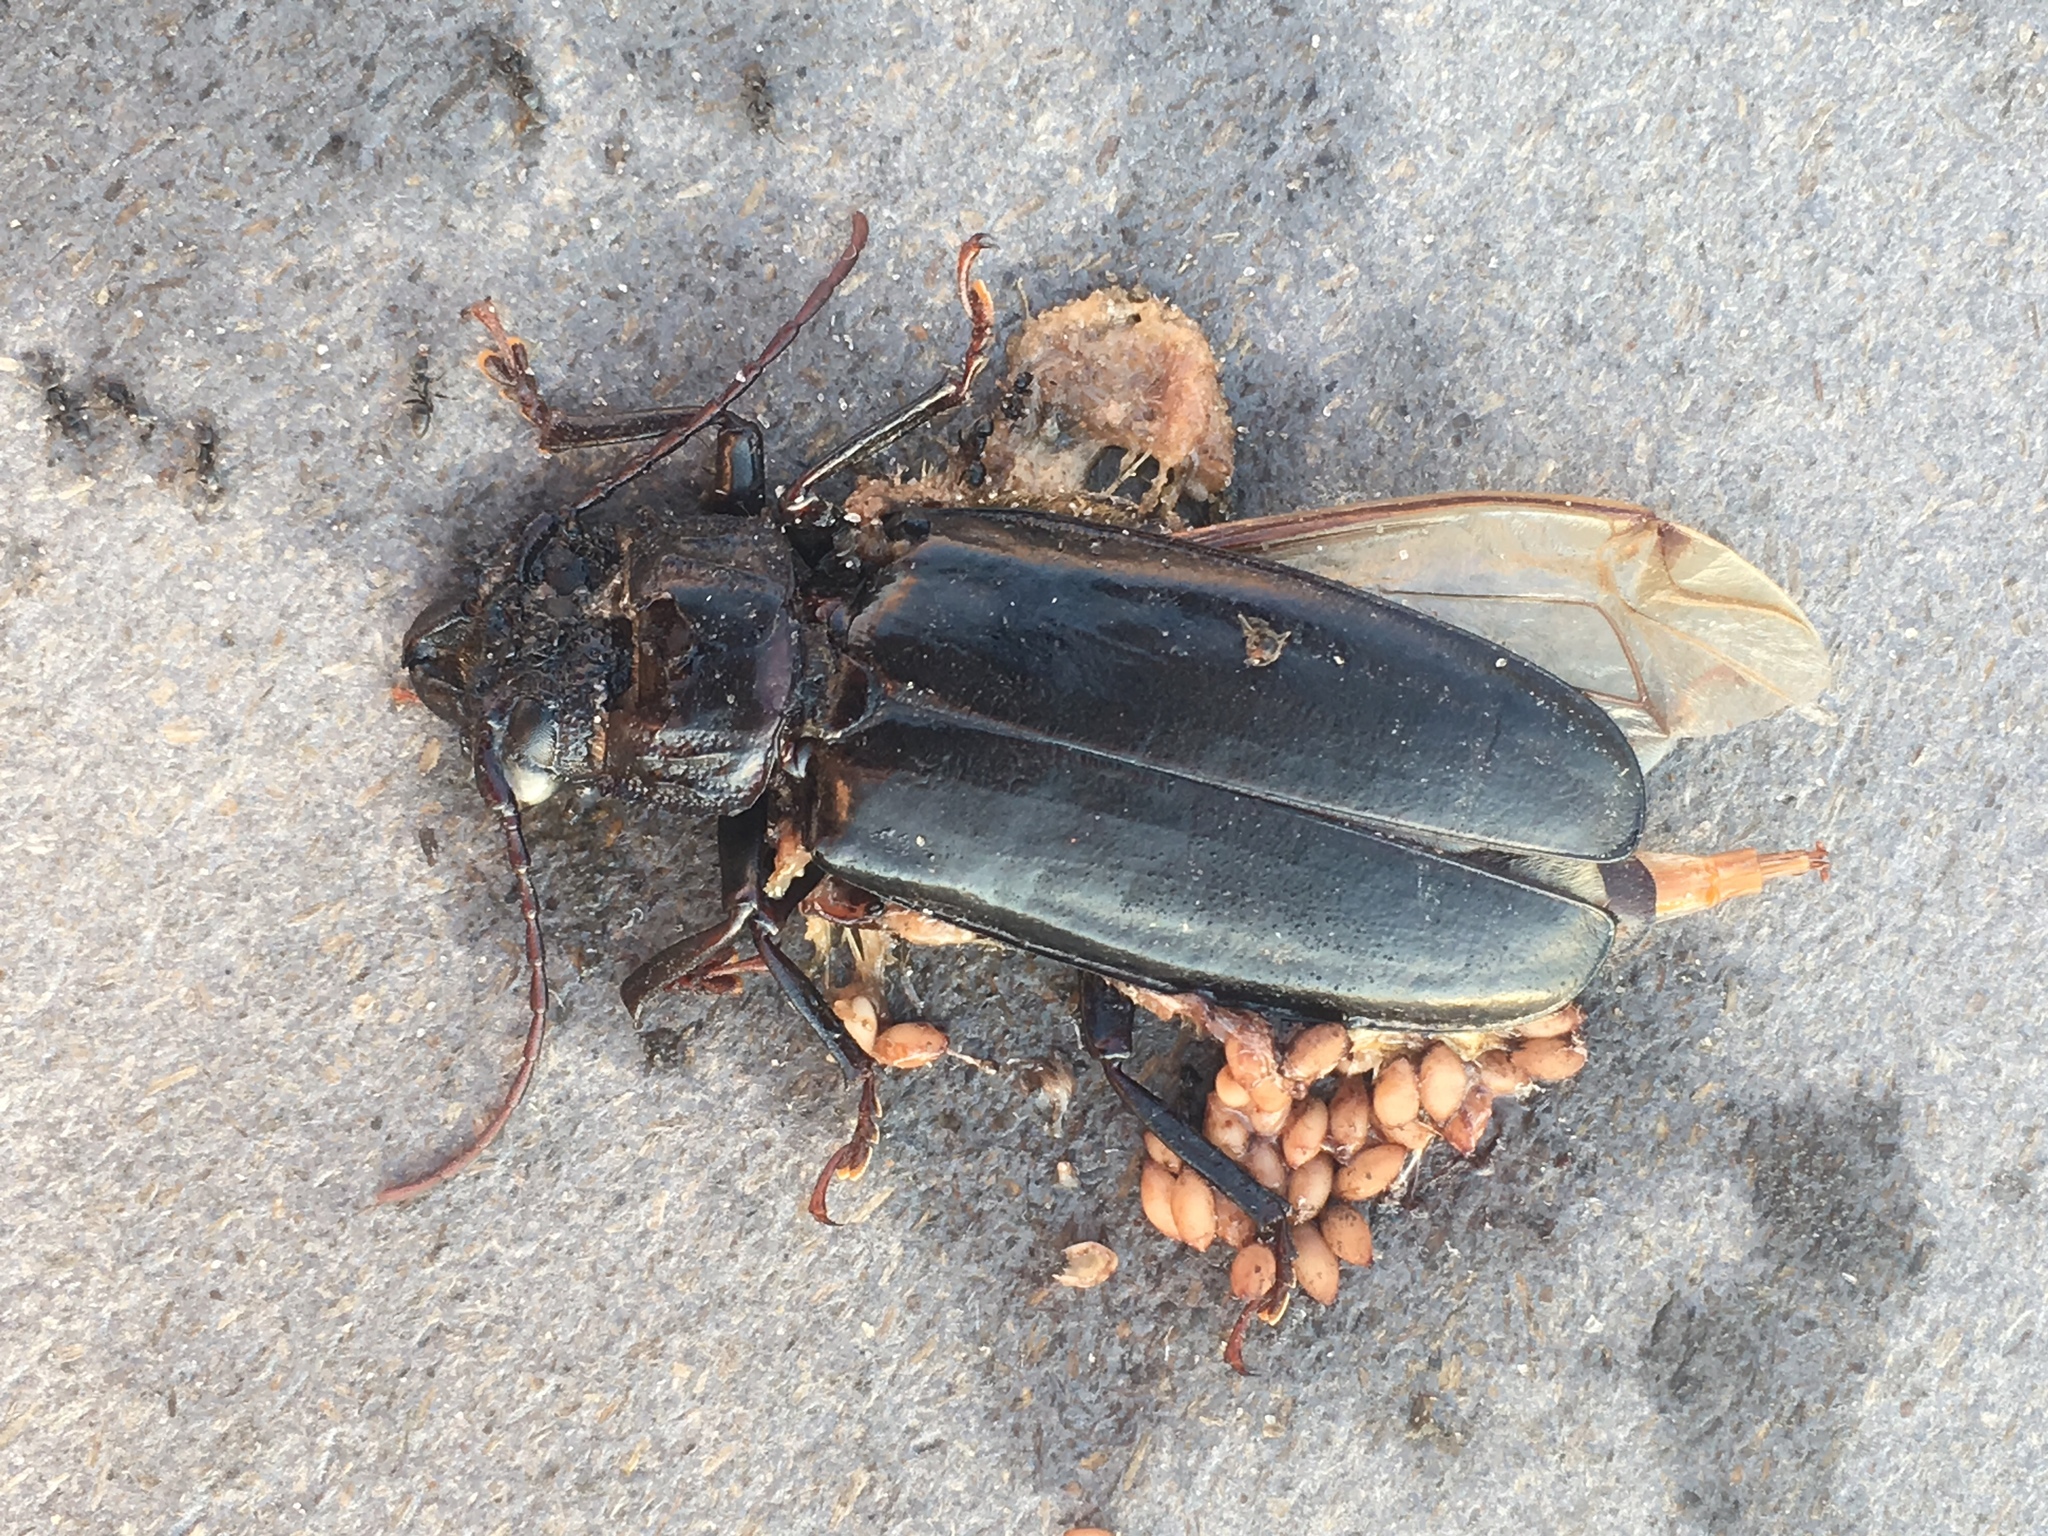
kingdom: Animalia
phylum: Arthropoda
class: Insecta
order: Coleoptera
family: Cerambycidae
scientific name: Cerambycidae
